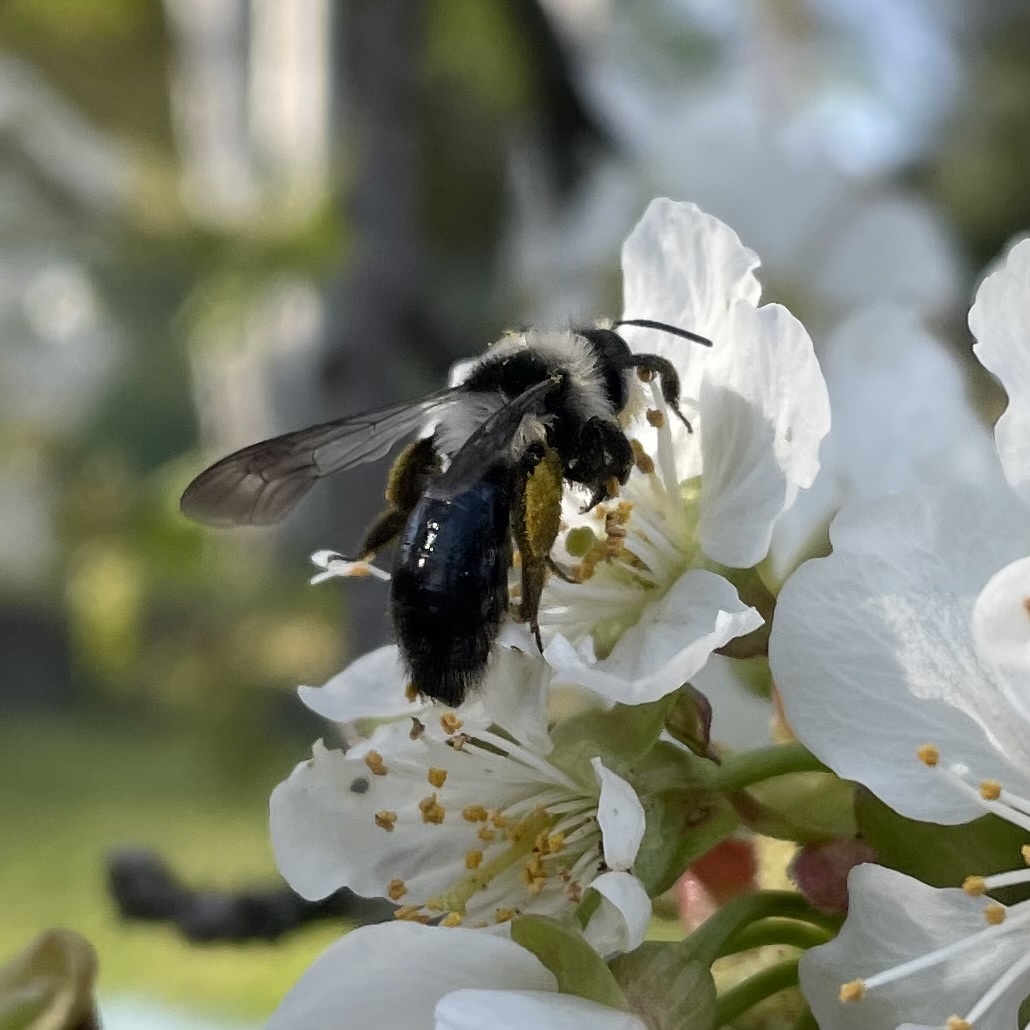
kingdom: Animalia
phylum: Arthropoda
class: Insecta
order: Hymenoptera
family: Andrenidae
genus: Andrena
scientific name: Andrena cineraria
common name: Ashy mining bee
